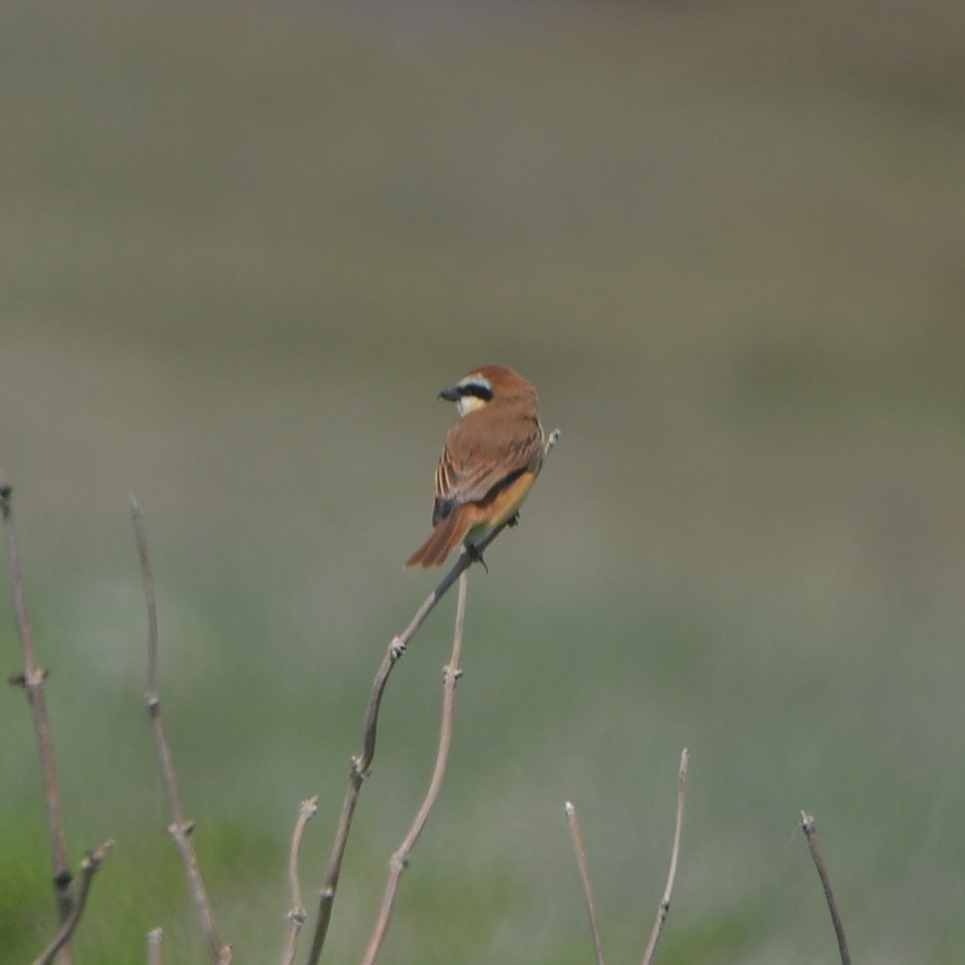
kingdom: Animalia
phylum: Chordata
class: Aves
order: Passeriformes
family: Laniidae
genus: Lanius
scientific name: Lanius cristatus
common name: Brown shrike
